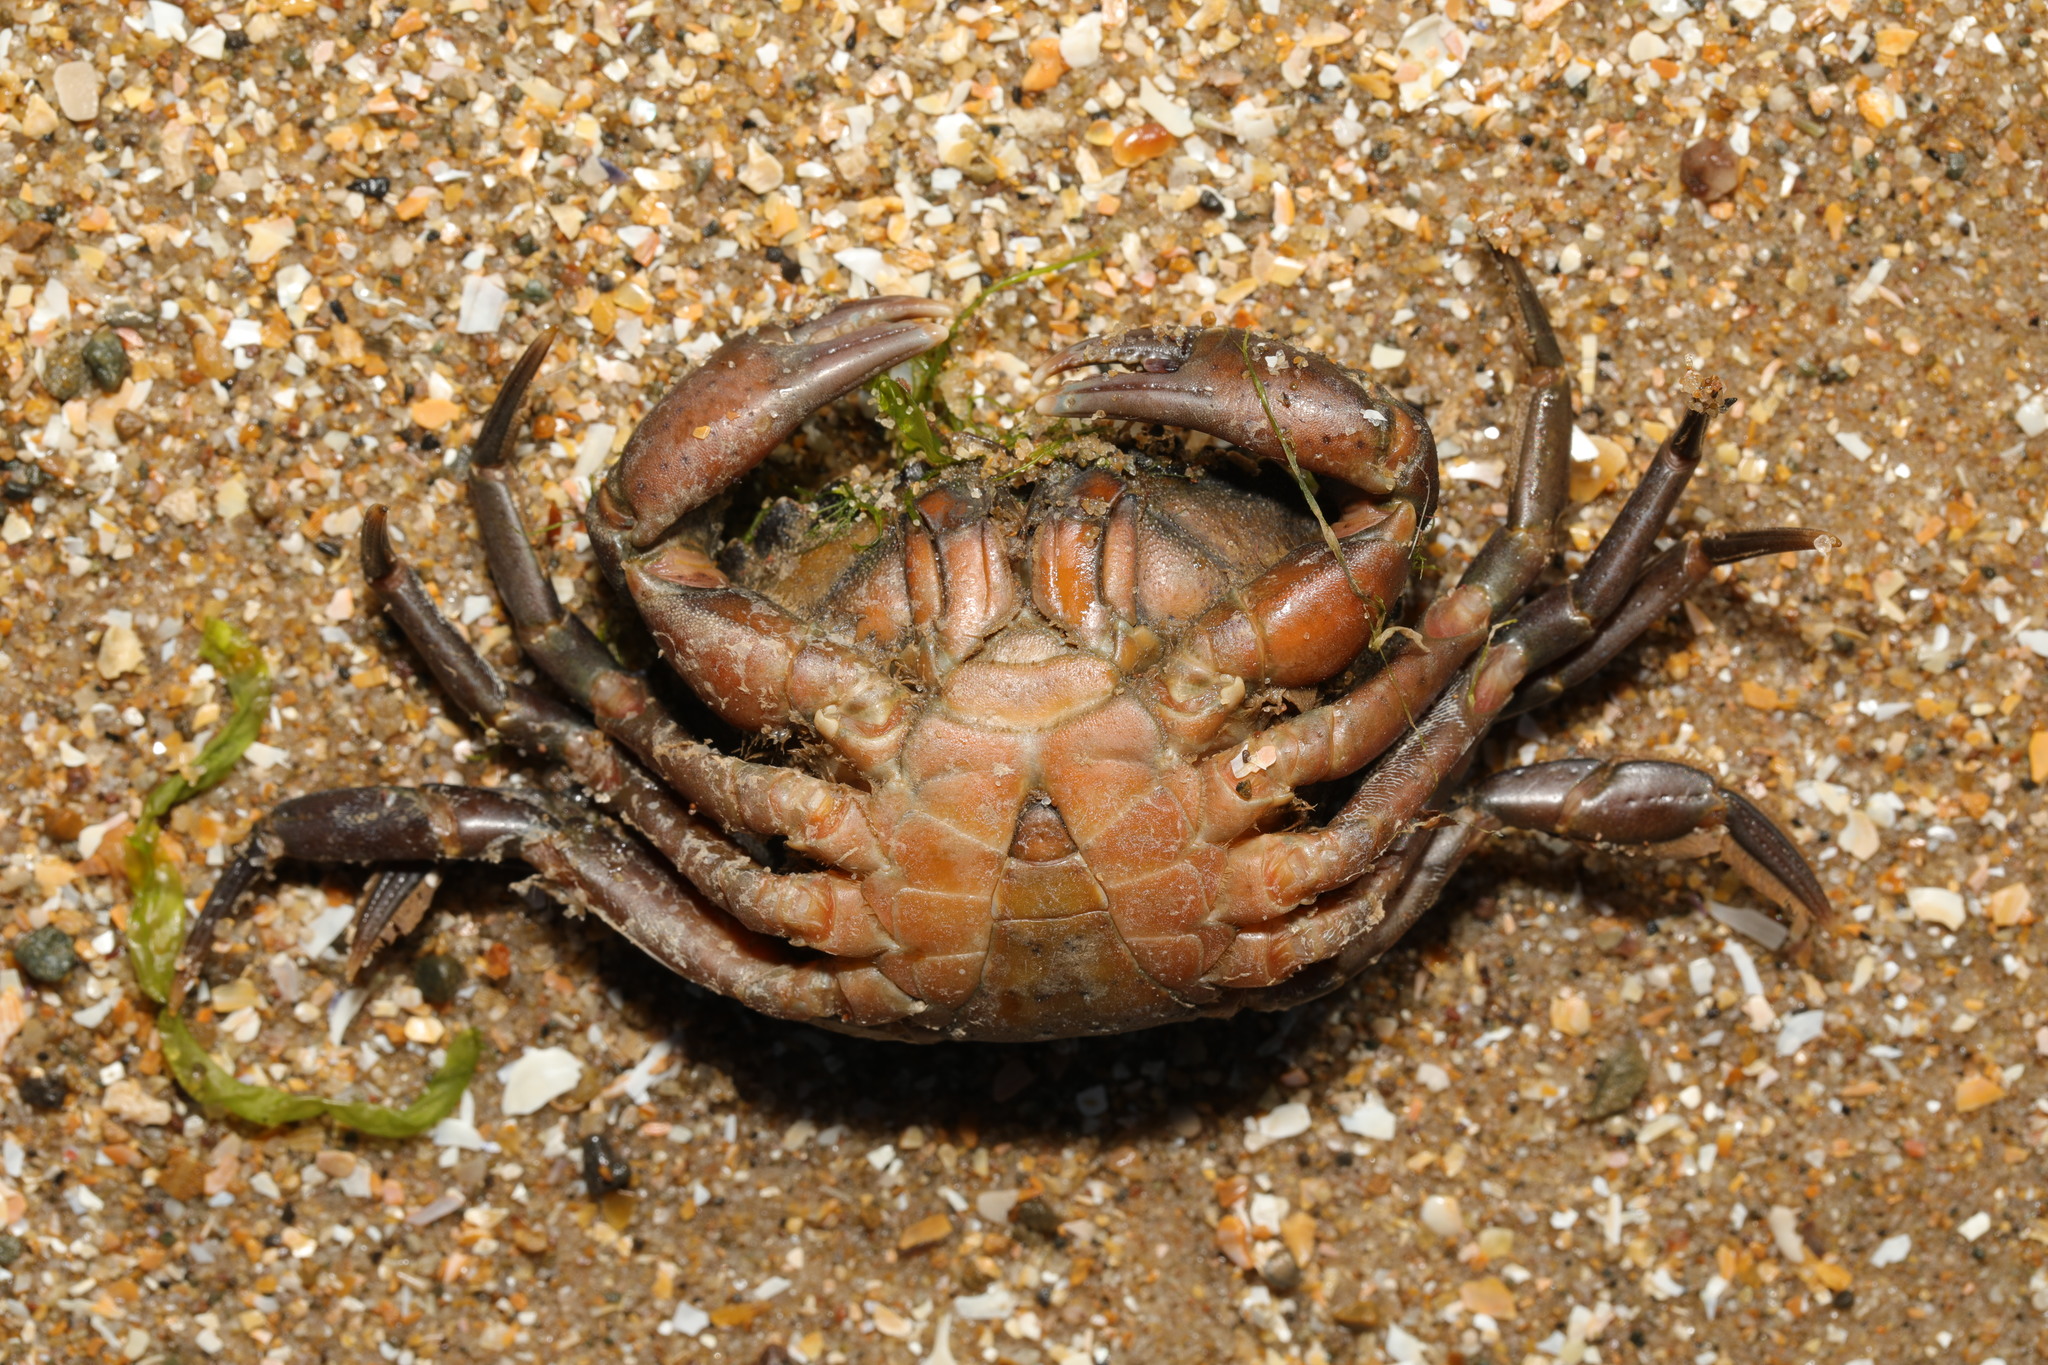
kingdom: Animalia
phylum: Arthropoda
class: Malacostraca
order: Decapoda
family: Carcinidae
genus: Carcinus
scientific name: Carcinus maenas
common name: European green crab
